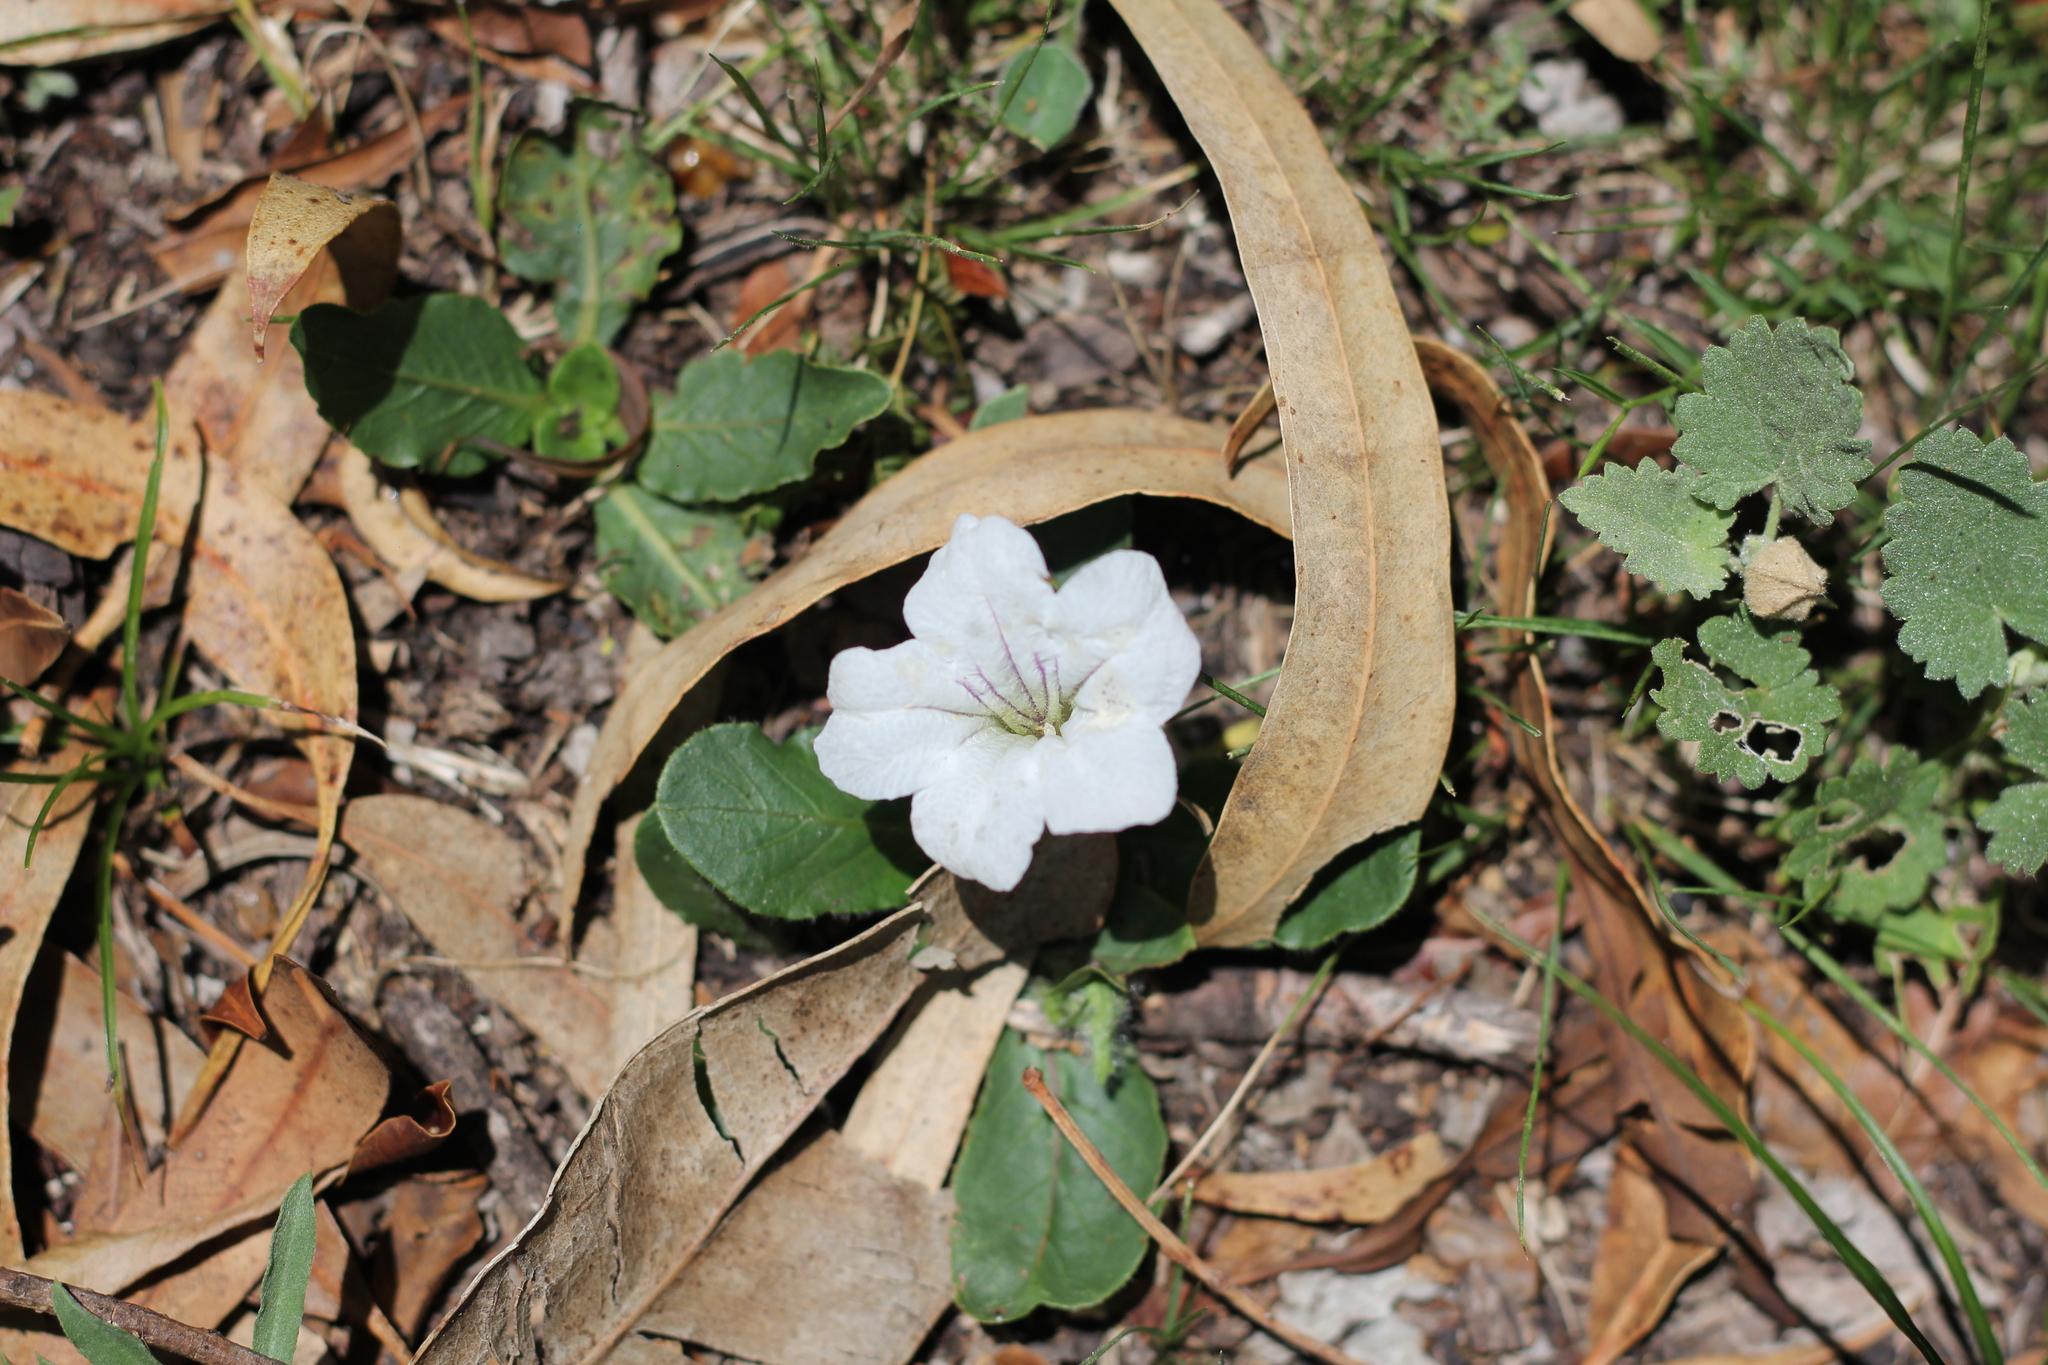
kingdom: Plantae
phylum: Tracheophyta
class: Magnoliopsida
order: Lamiales
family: Acanthaceae
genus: Ruellia
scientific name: Ruellia morongii
